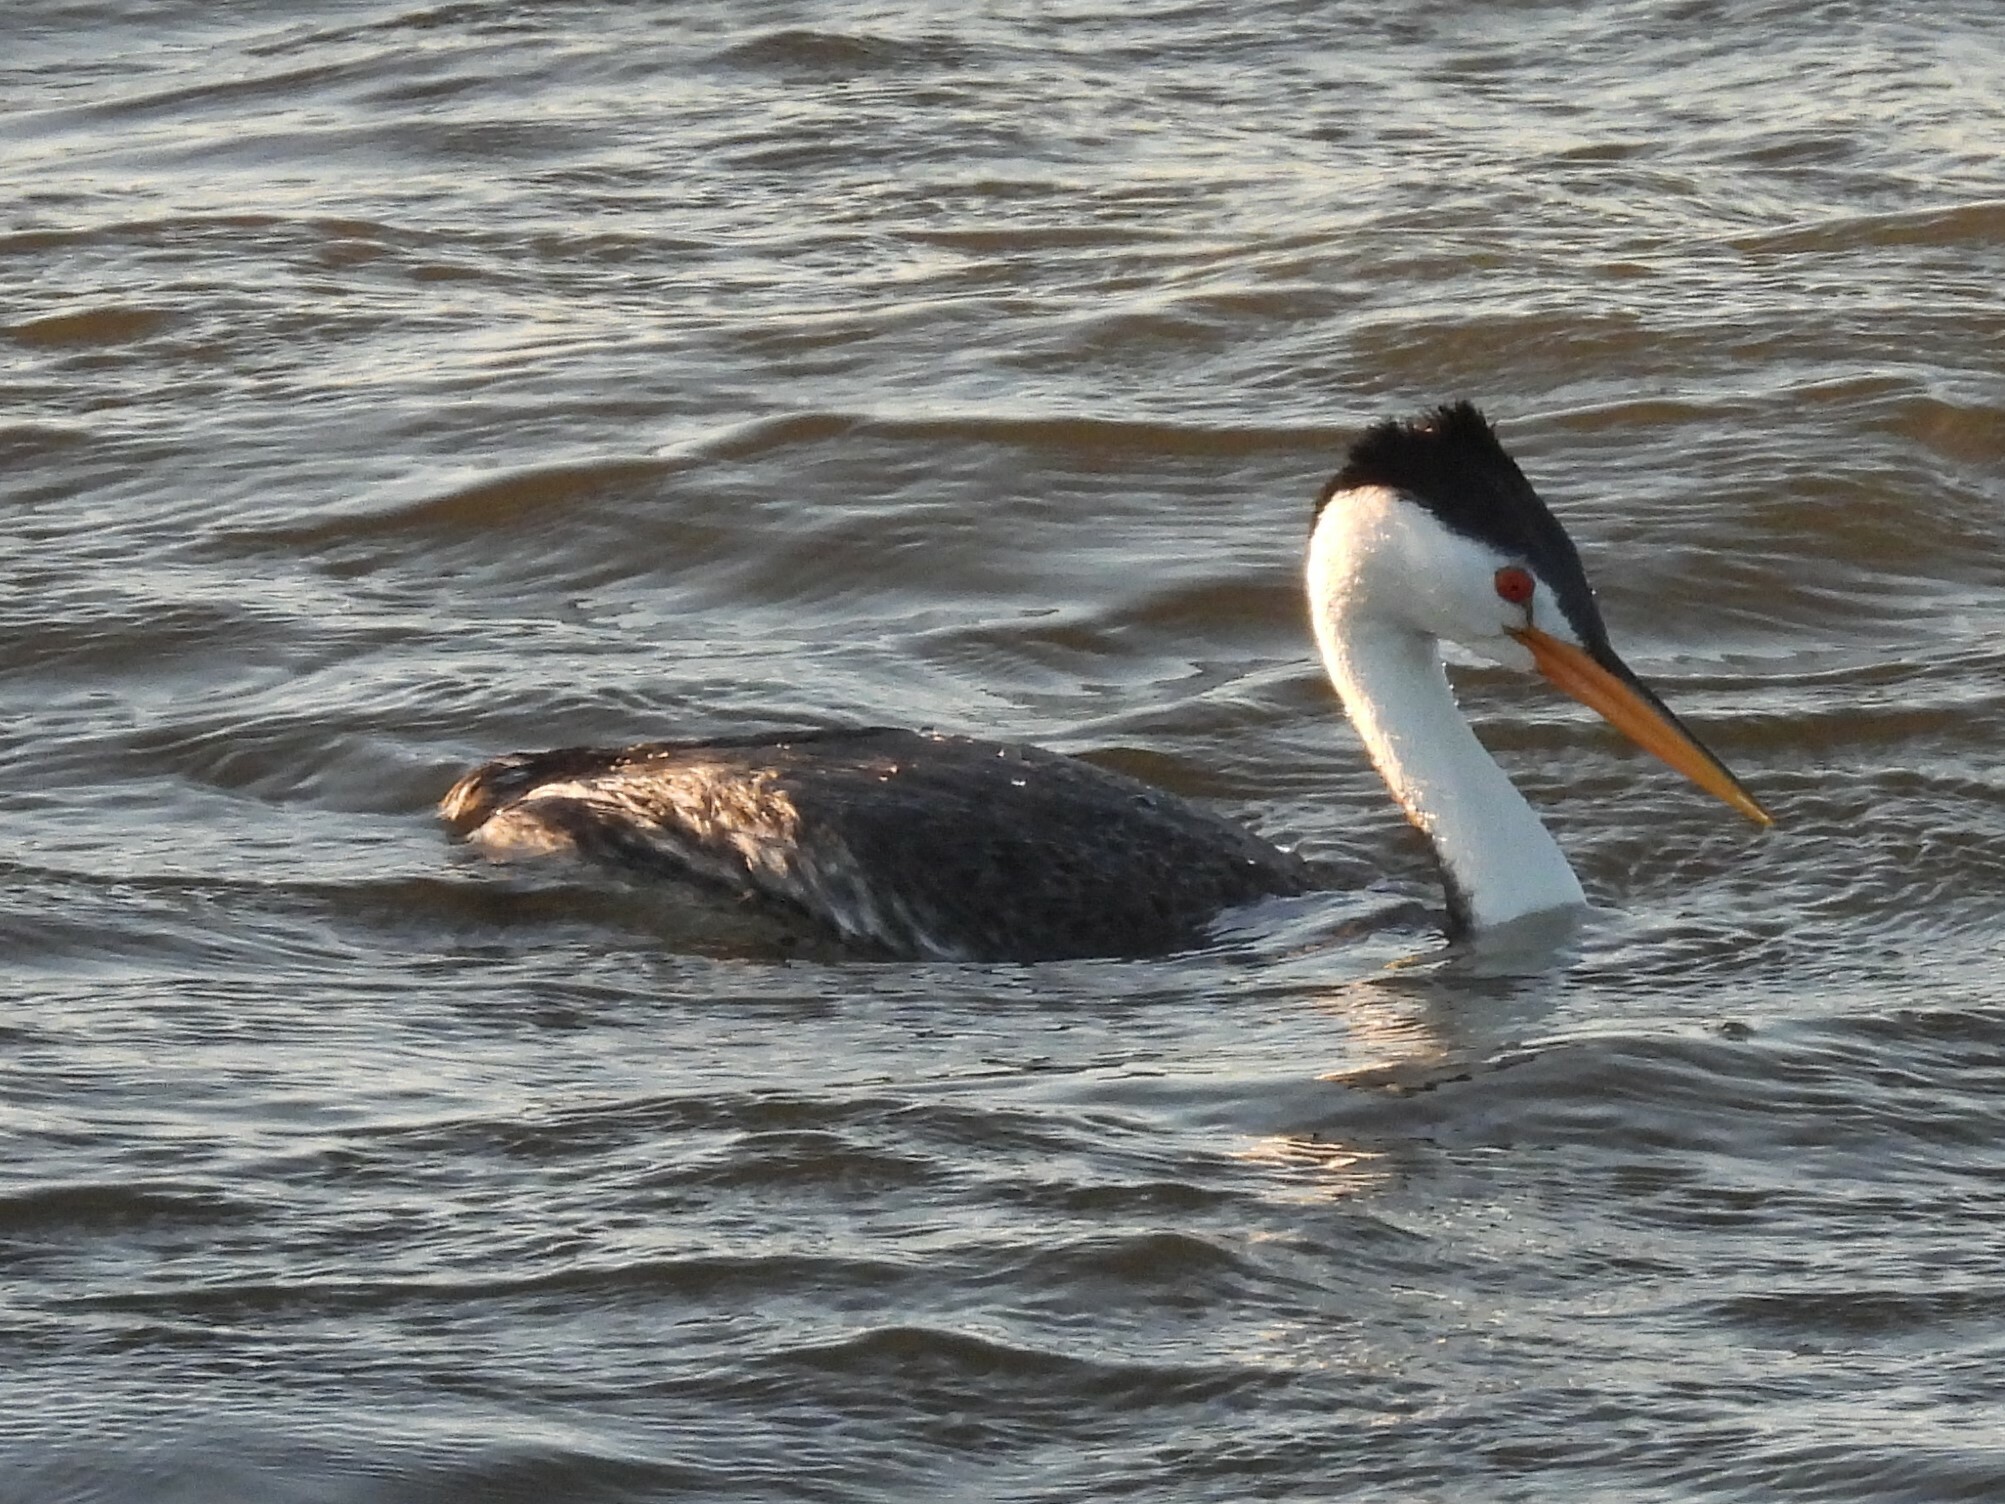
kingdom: Animalia
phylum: Chordata
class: Aves
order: Podicipediformes
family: Podicipedidae
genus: Aechmophorus
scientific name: Aechmophorus clarkii
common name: Clark's grebe
